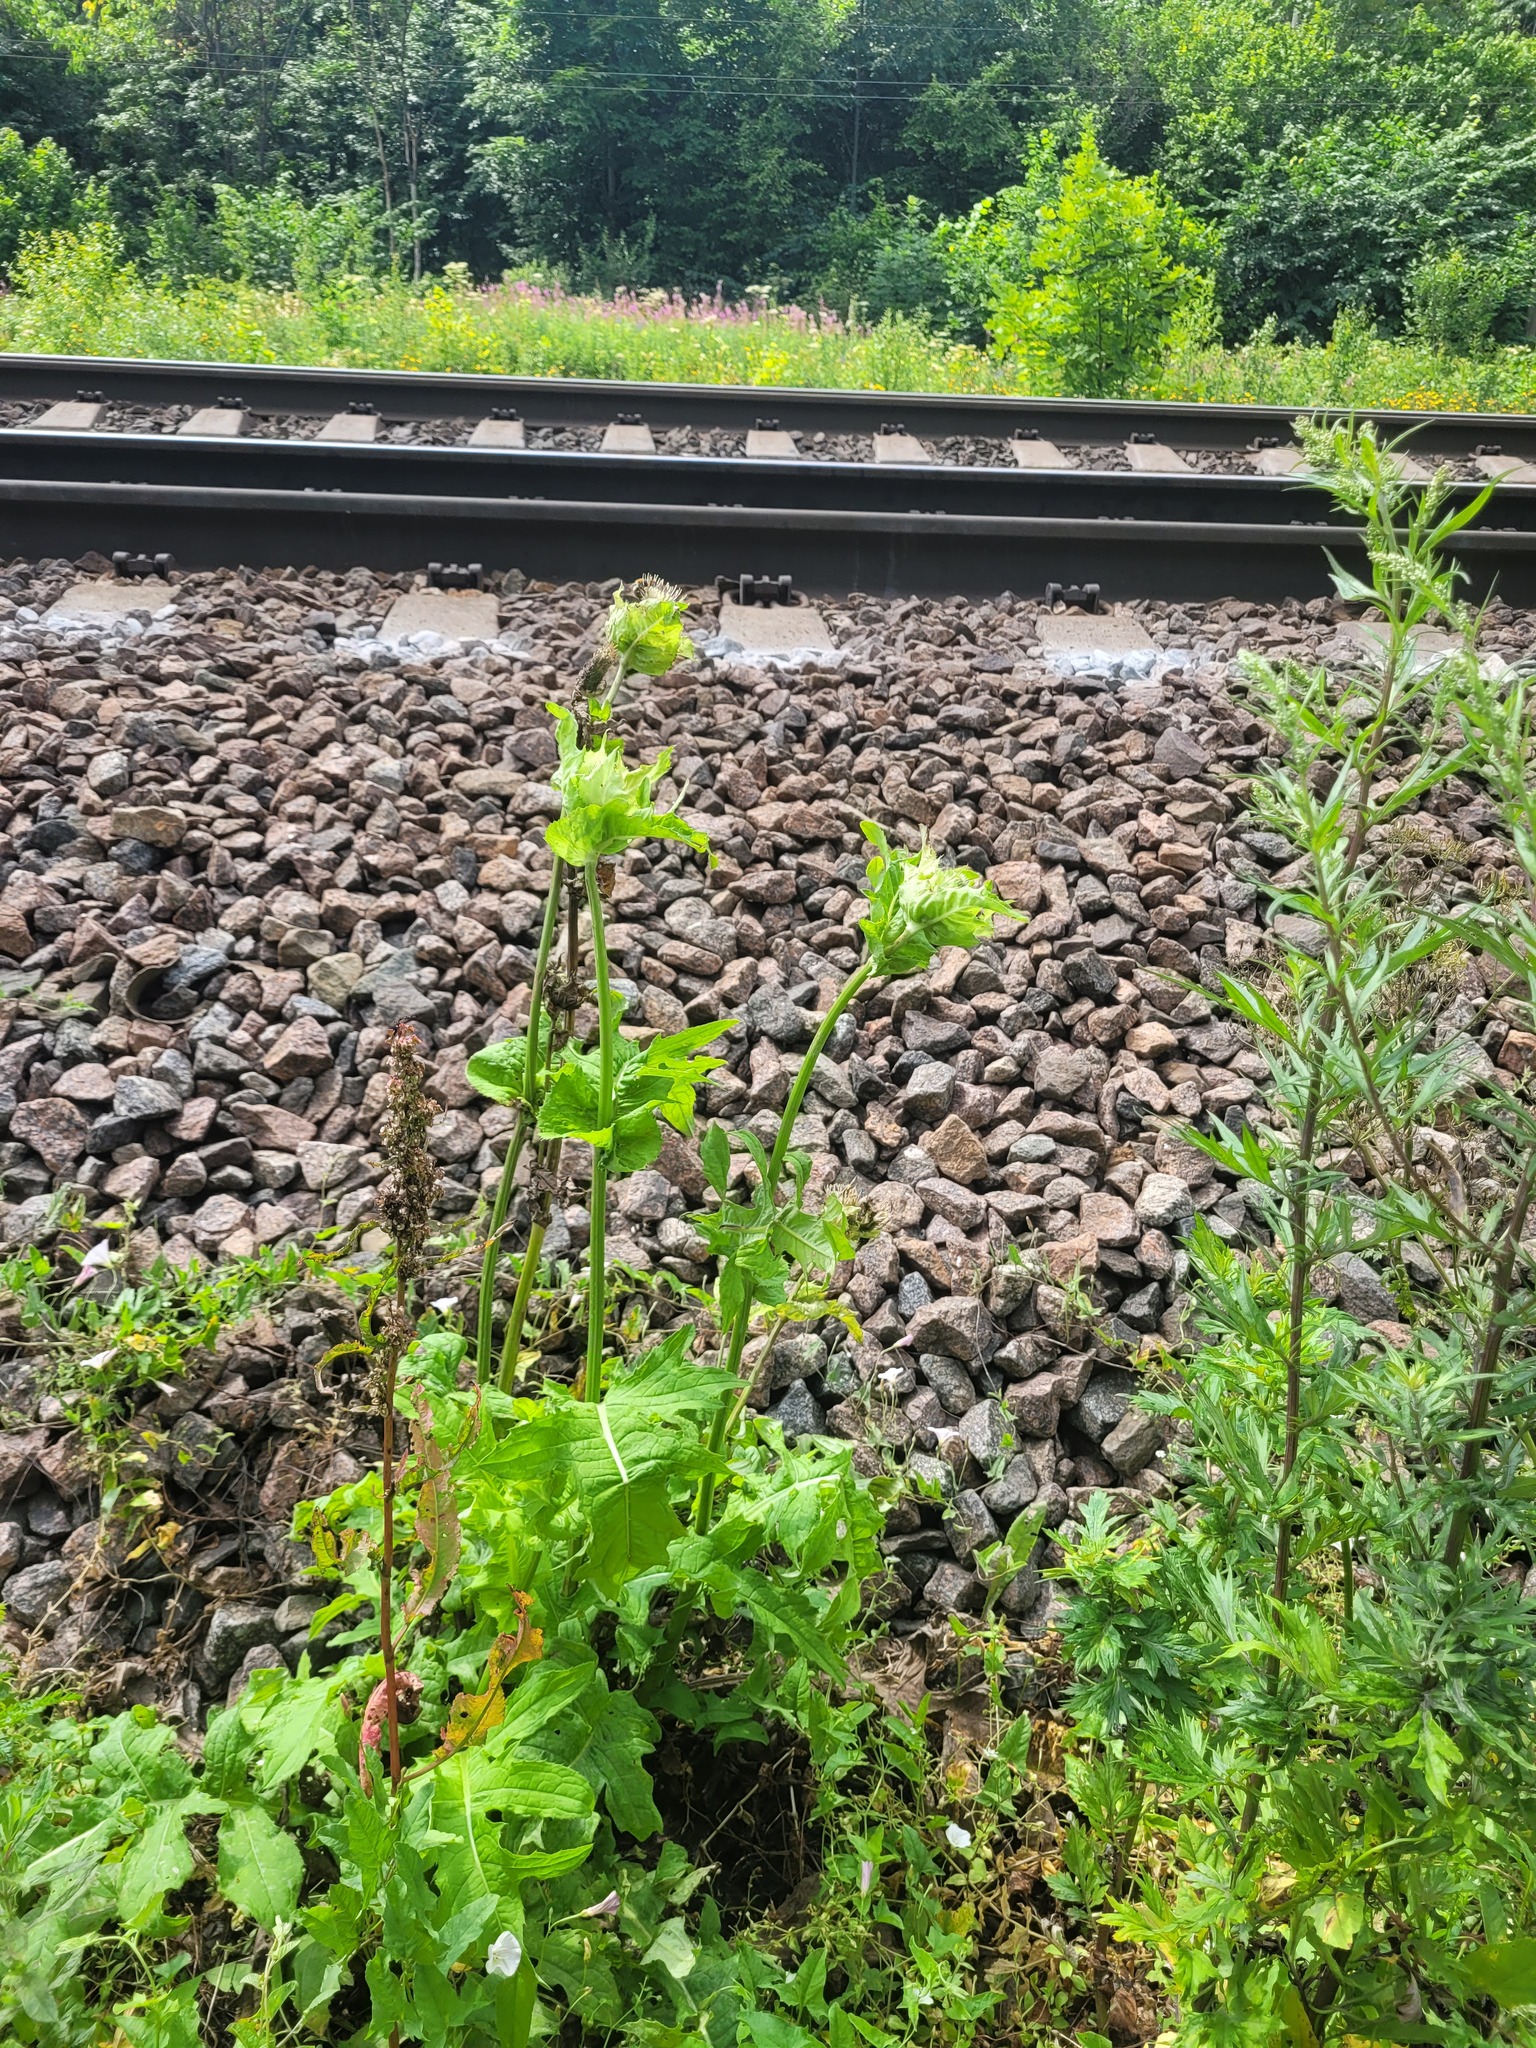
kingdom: Plantae
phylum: Tracheophyta
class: Magnoliopsida
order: Asterales
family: Asteraceae
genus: Cirsium
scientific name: Cirsium oleraceum
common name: Cabbage thistle
